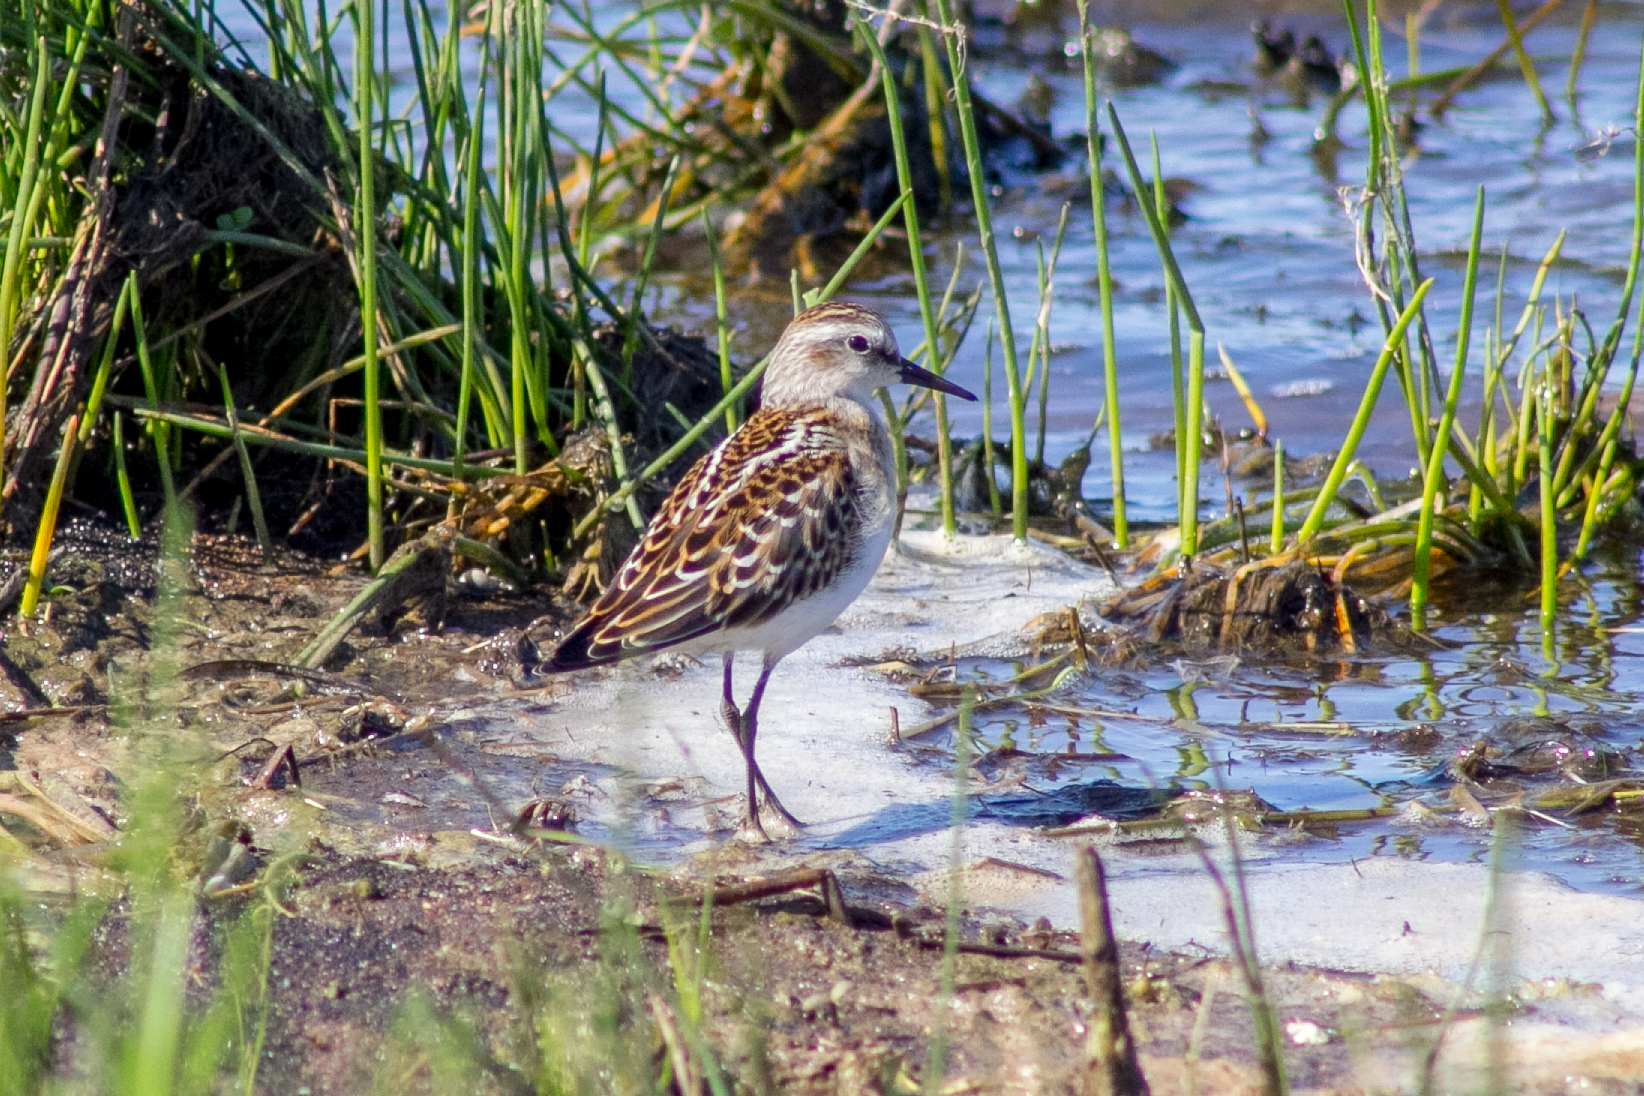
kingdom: Animalia
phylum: Chordata
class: Aves
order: Charadriiformes
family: Scolopacidae
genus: Calidris
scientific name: Calidris minuta
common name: Little stint
